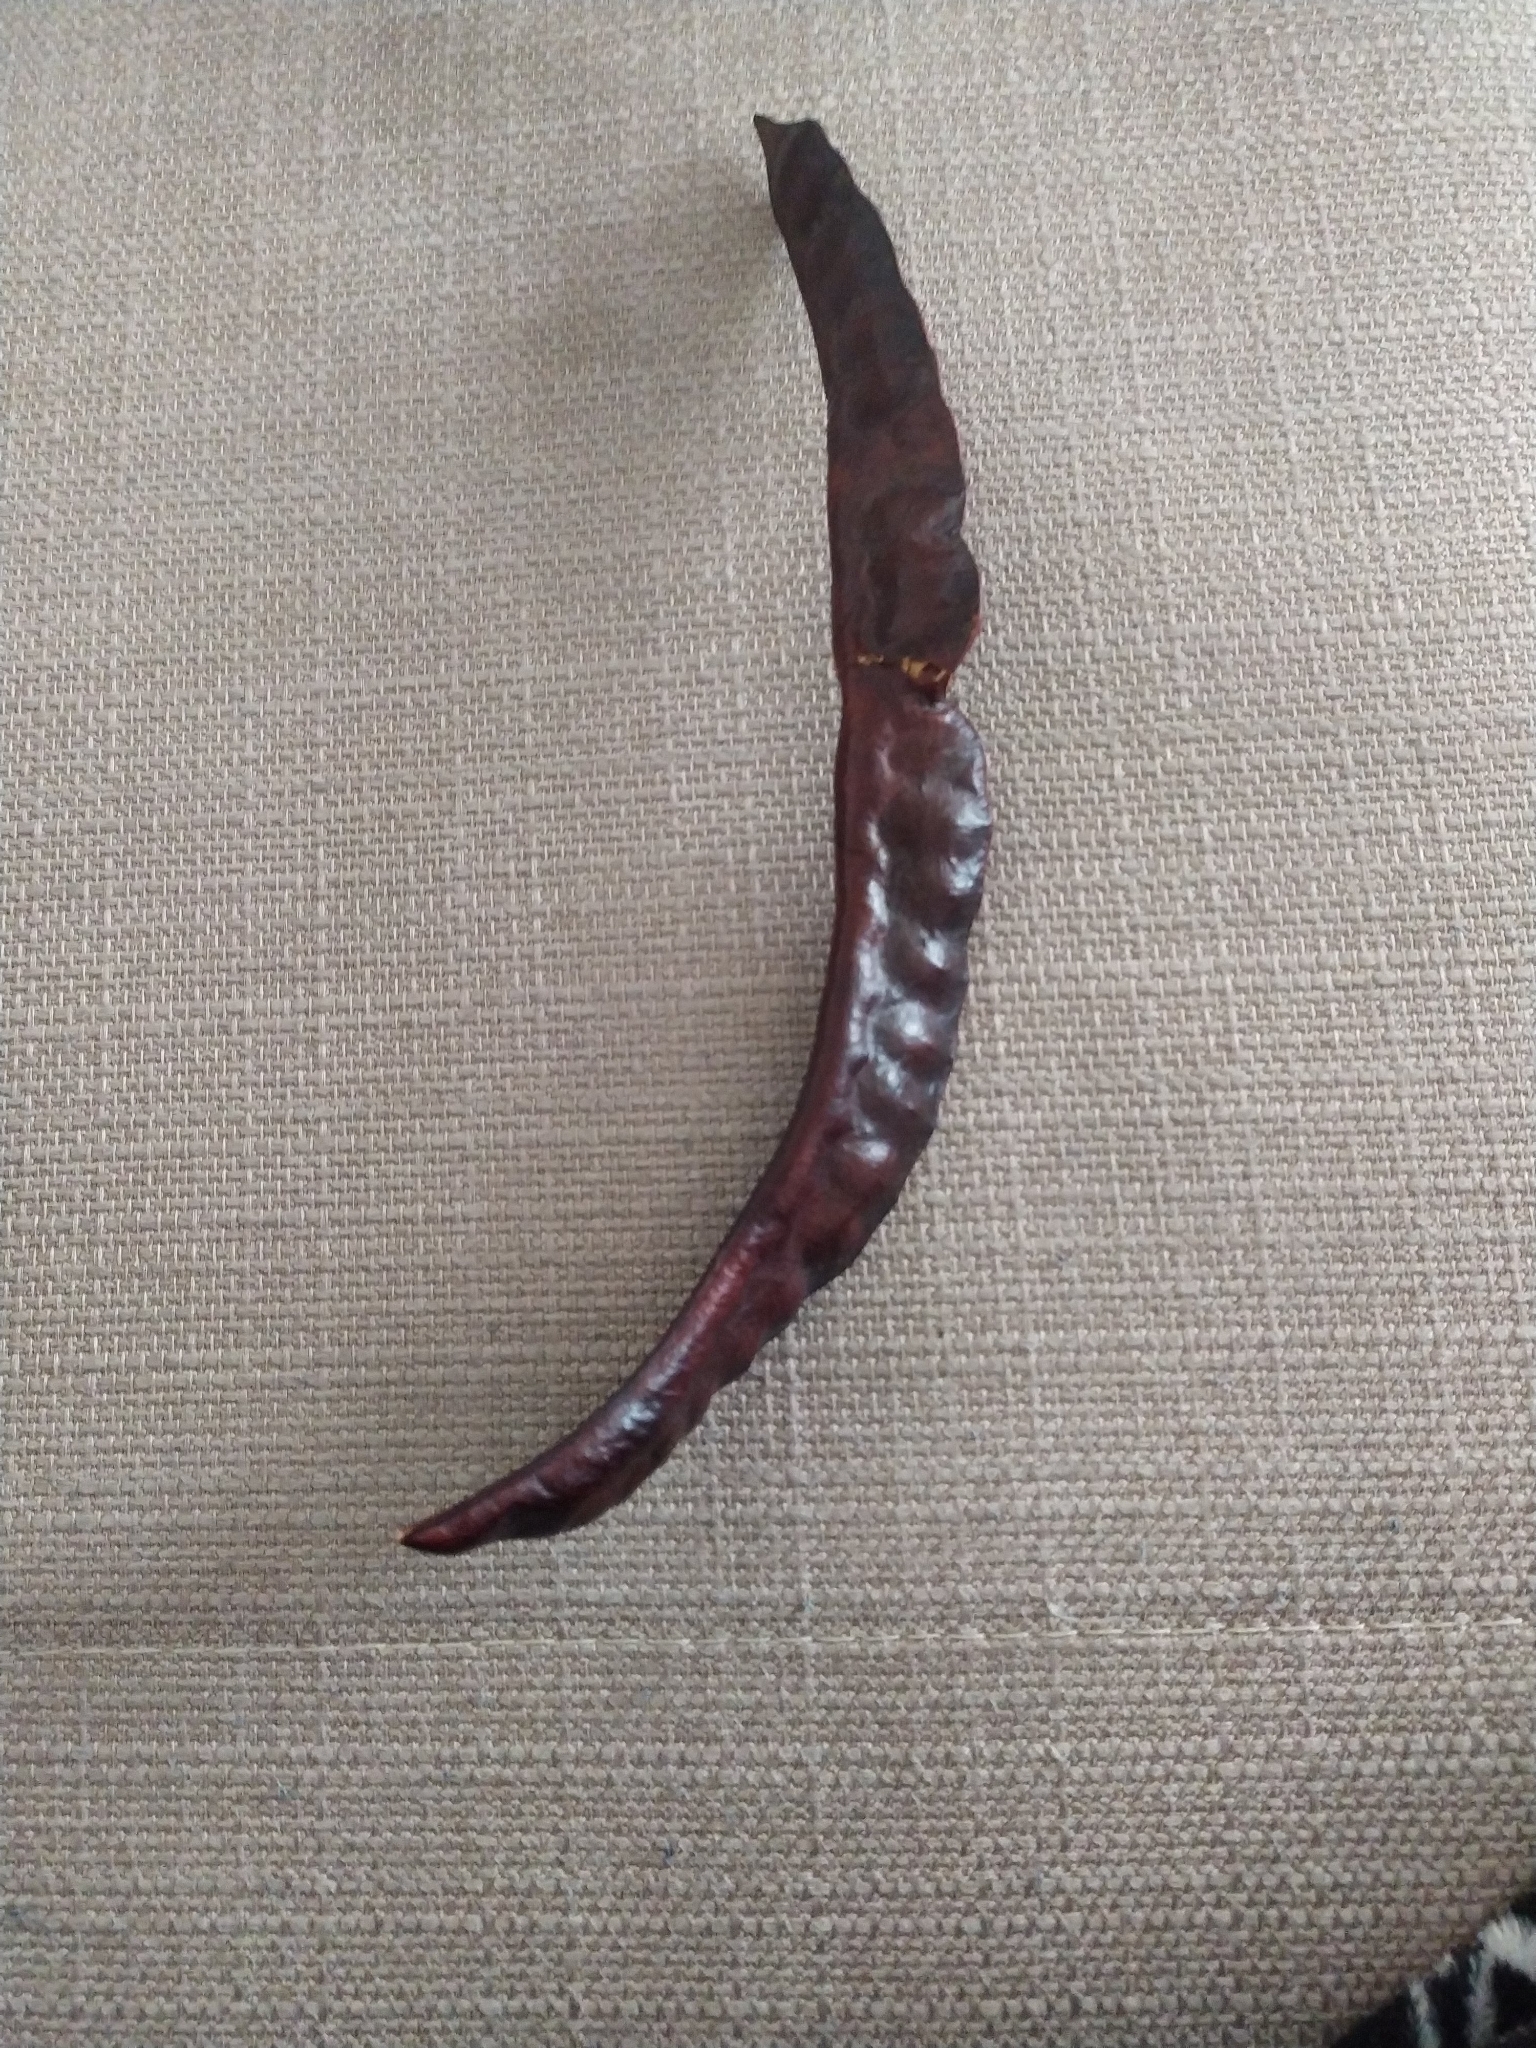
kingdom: Plantae
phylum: Tracheophyta
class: Magnoliopsida
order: Fabales
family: Fabaceae
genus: Gleditsia
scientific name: Gleditsia triacanthos
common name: Common honeylocust
